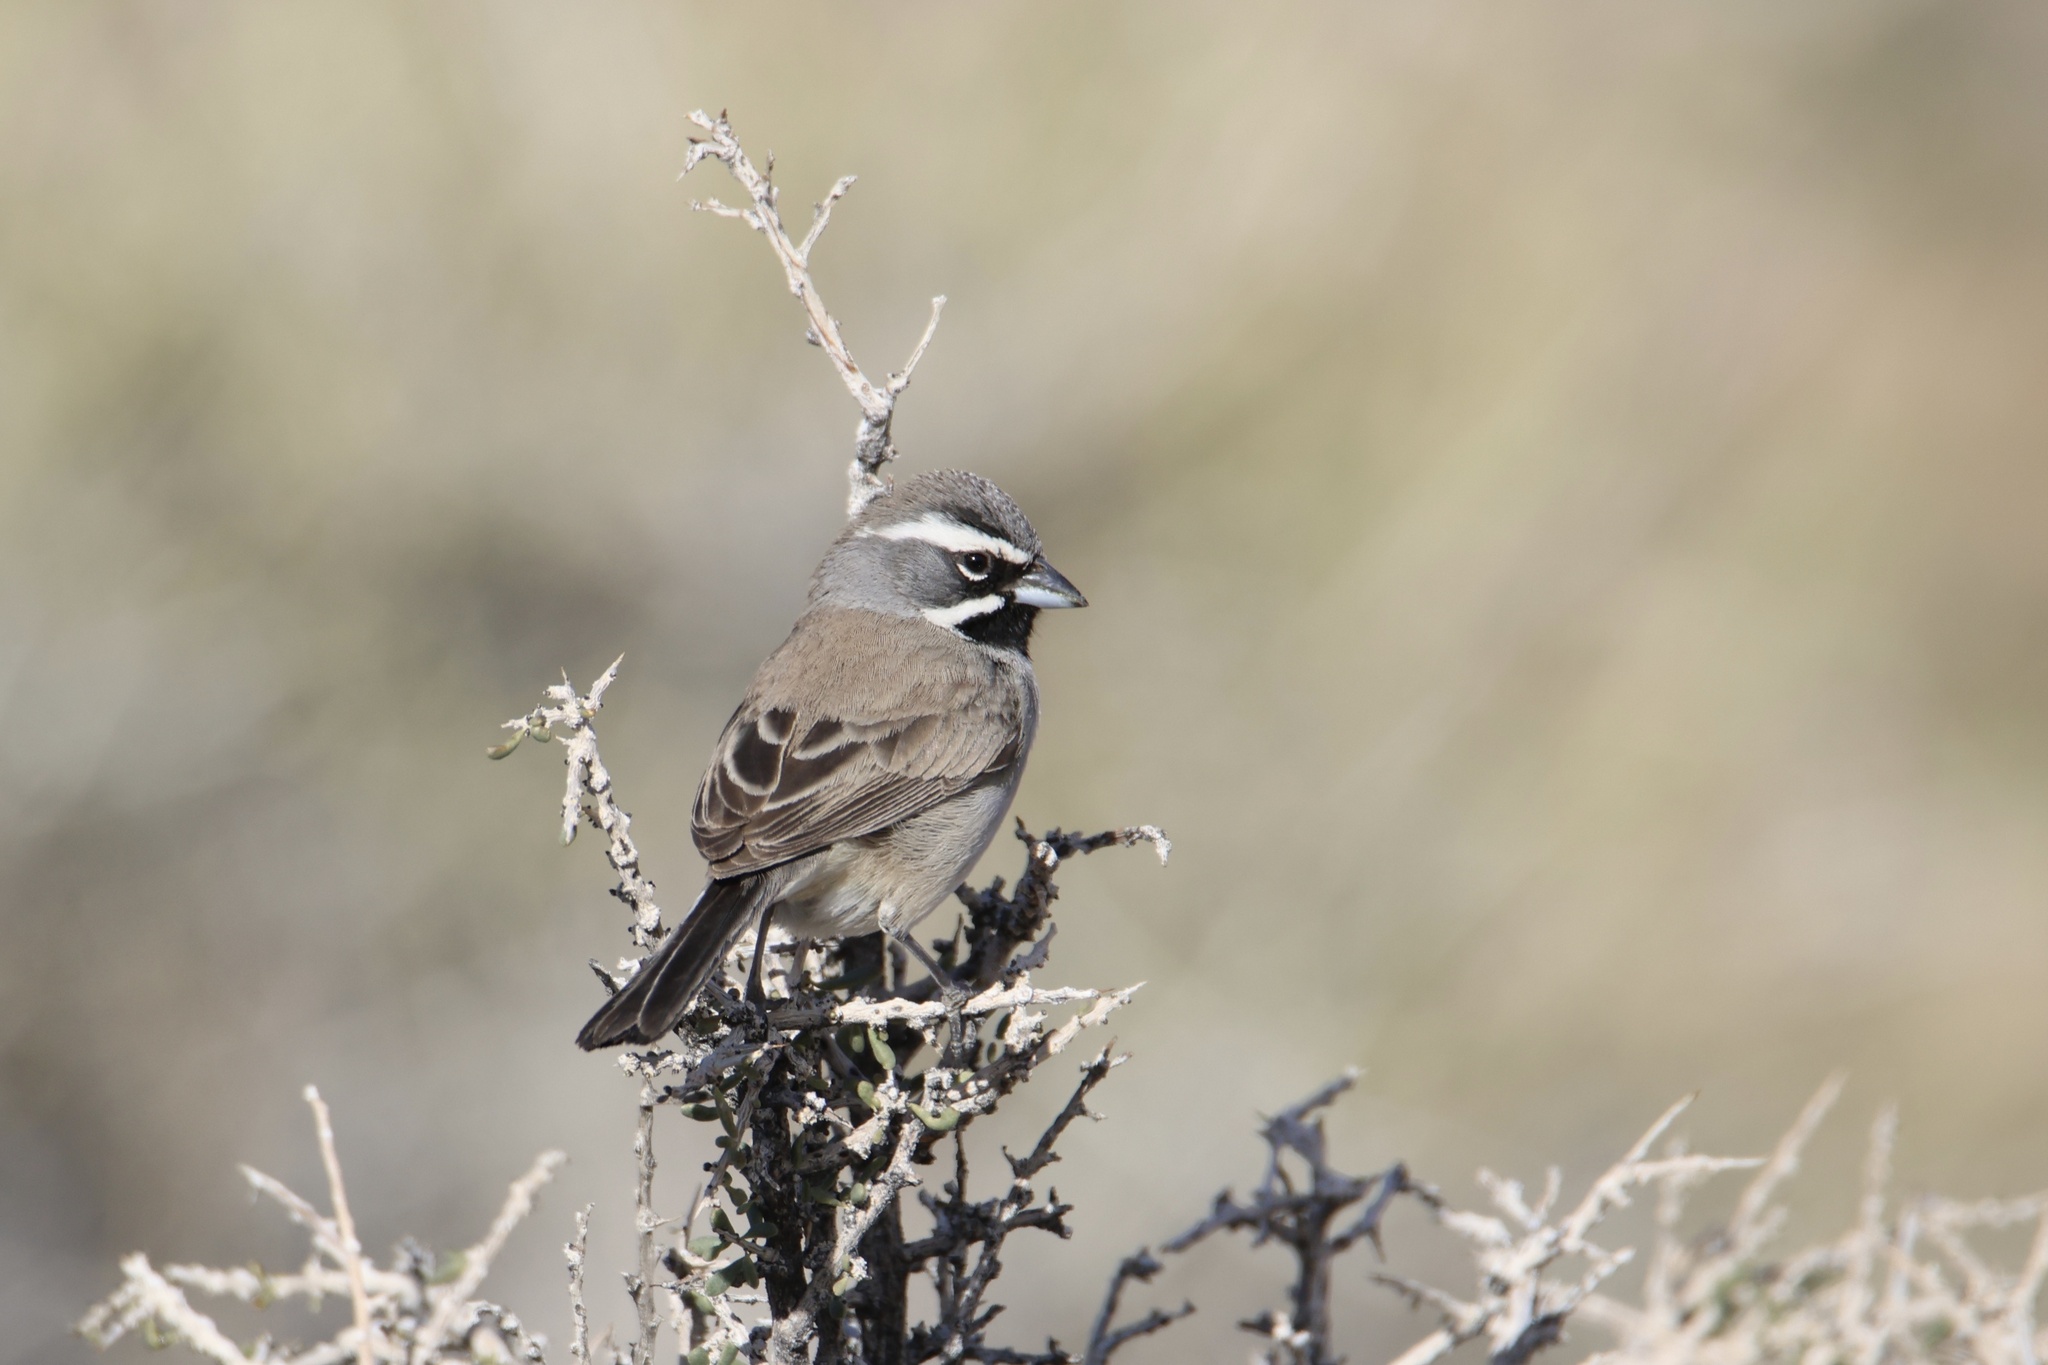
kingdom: Animalia
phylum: Chordata
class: Aves
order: Passeriformes
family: Passerellidae
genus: Amphispiza
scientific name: Amphispiza bilineata
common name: Black-throated sparrow
